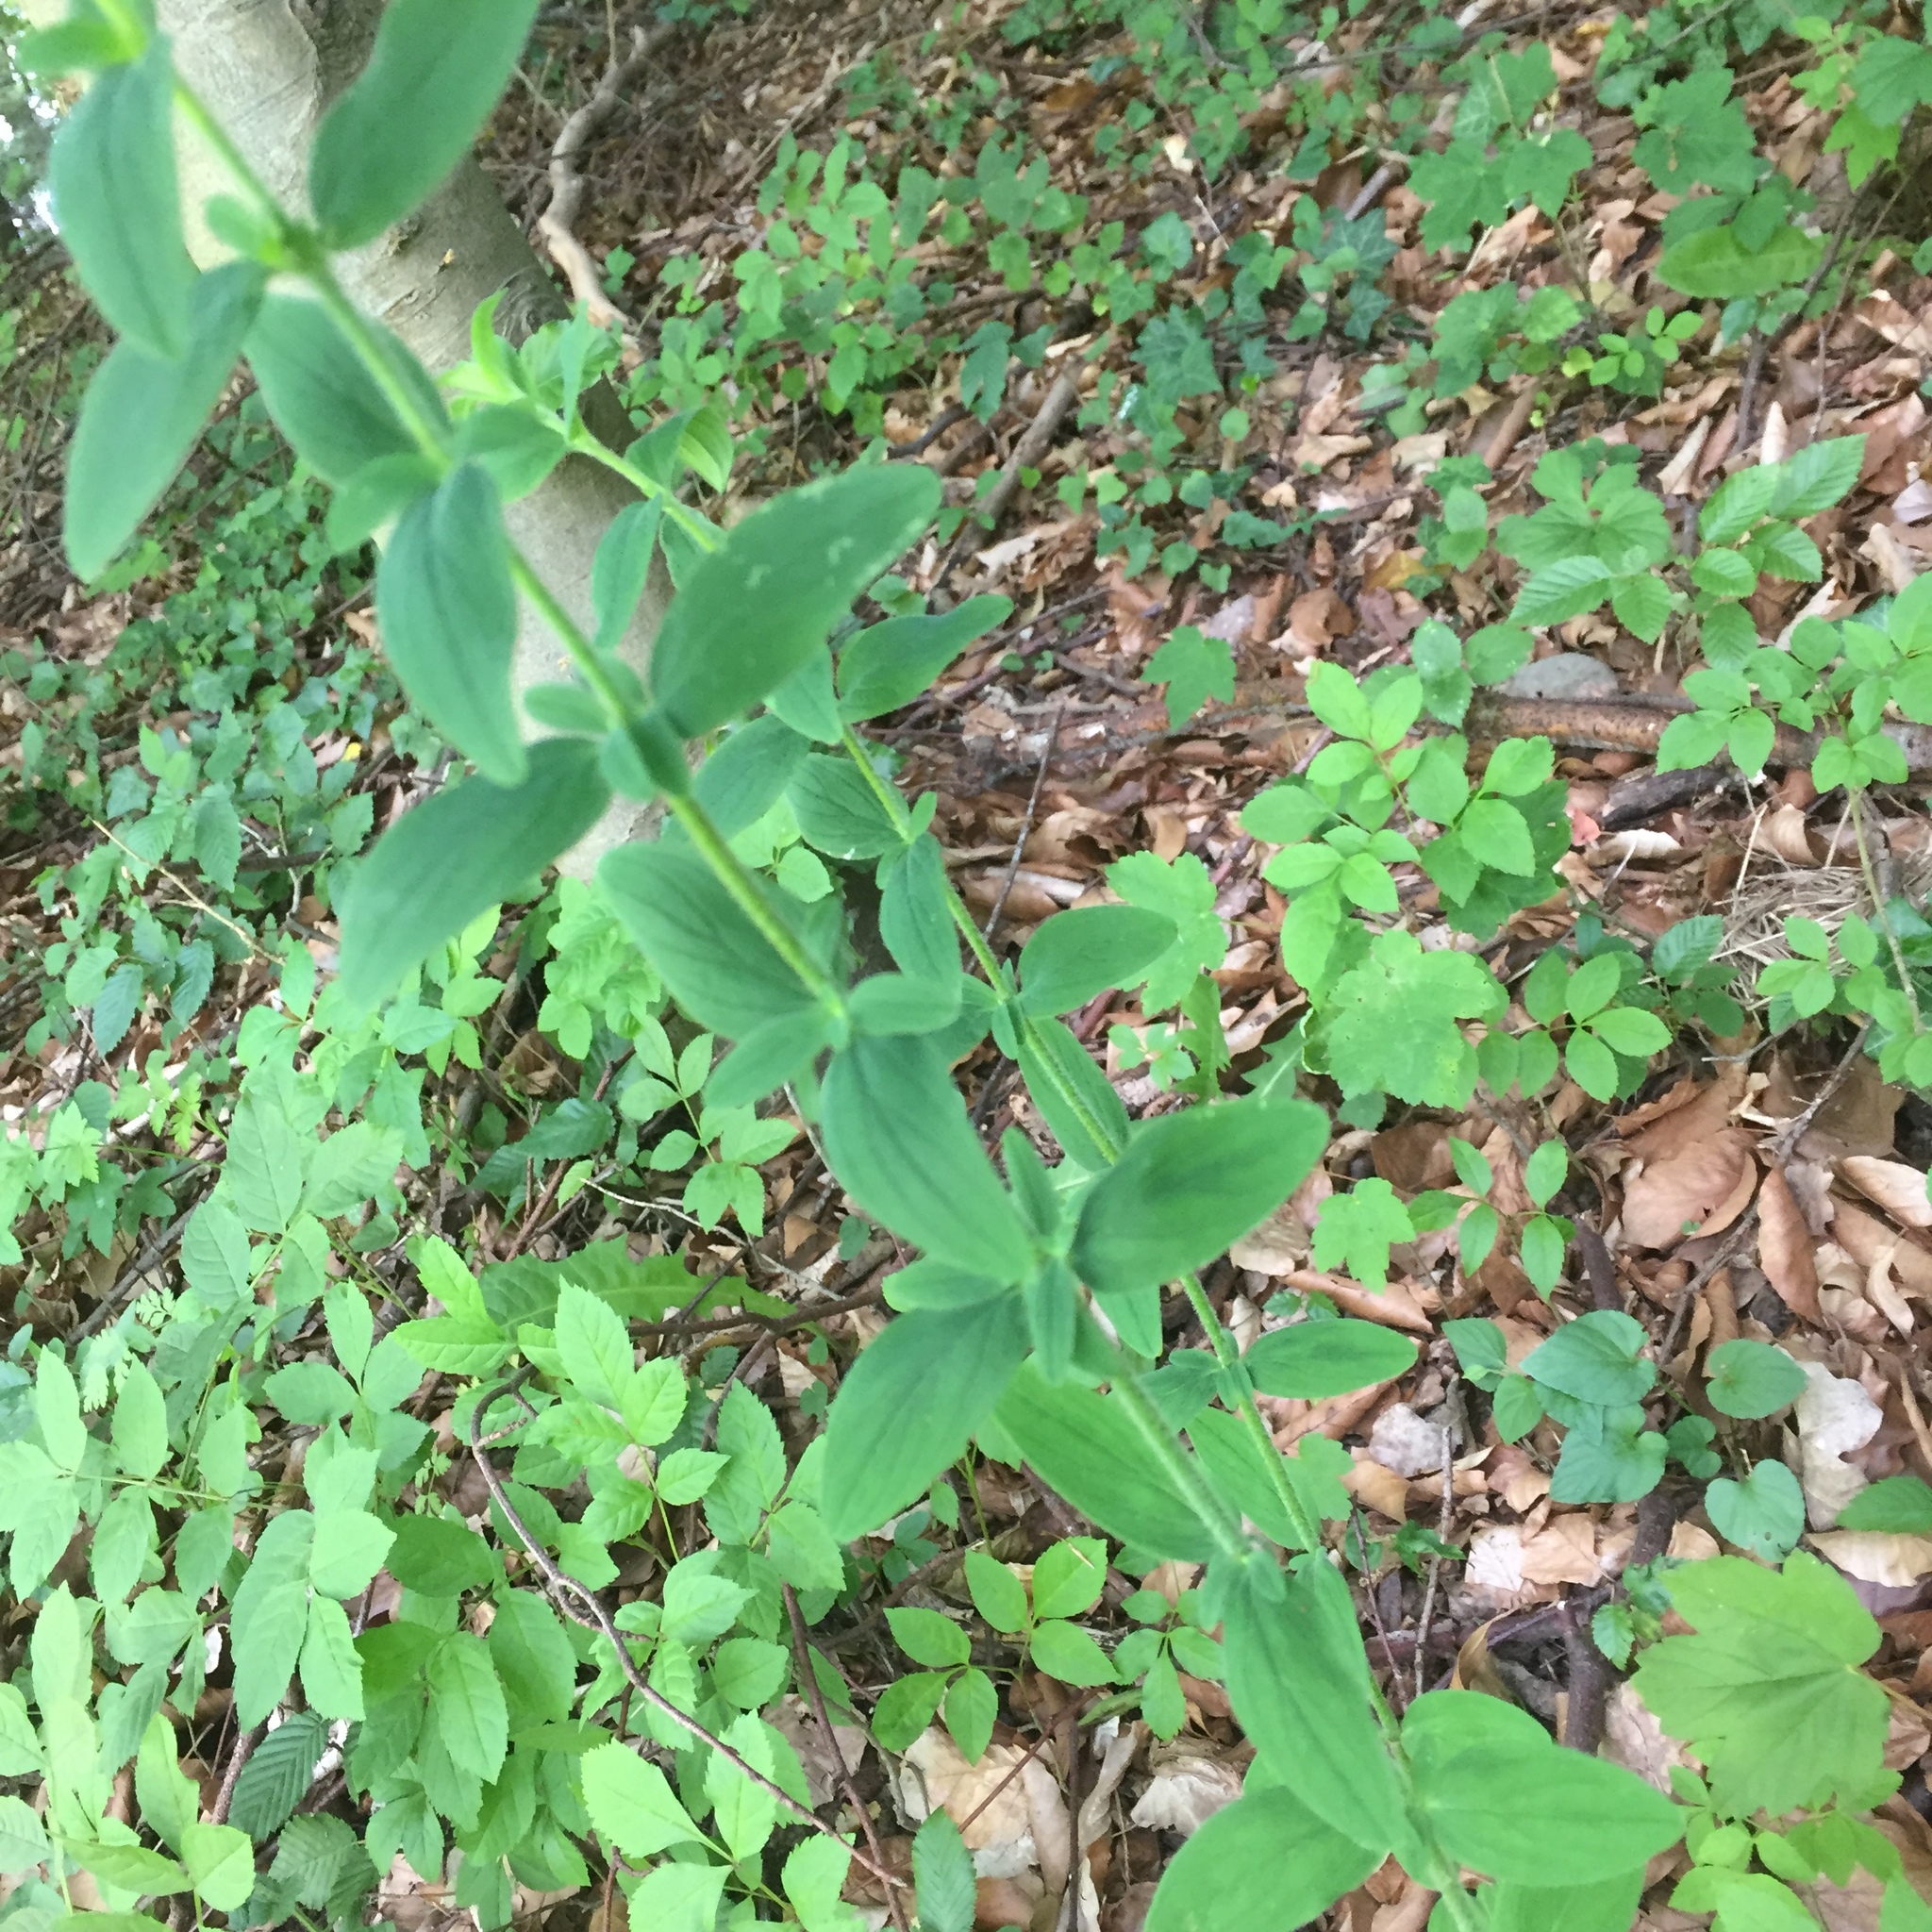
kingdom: Plantae
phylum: Tracheophyta
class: Magnoliopsida
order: Malpighiales
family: Hypericaceae
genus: Hypericum
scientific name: Hypericum hirsutum
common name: Hairy st. john's-wort
